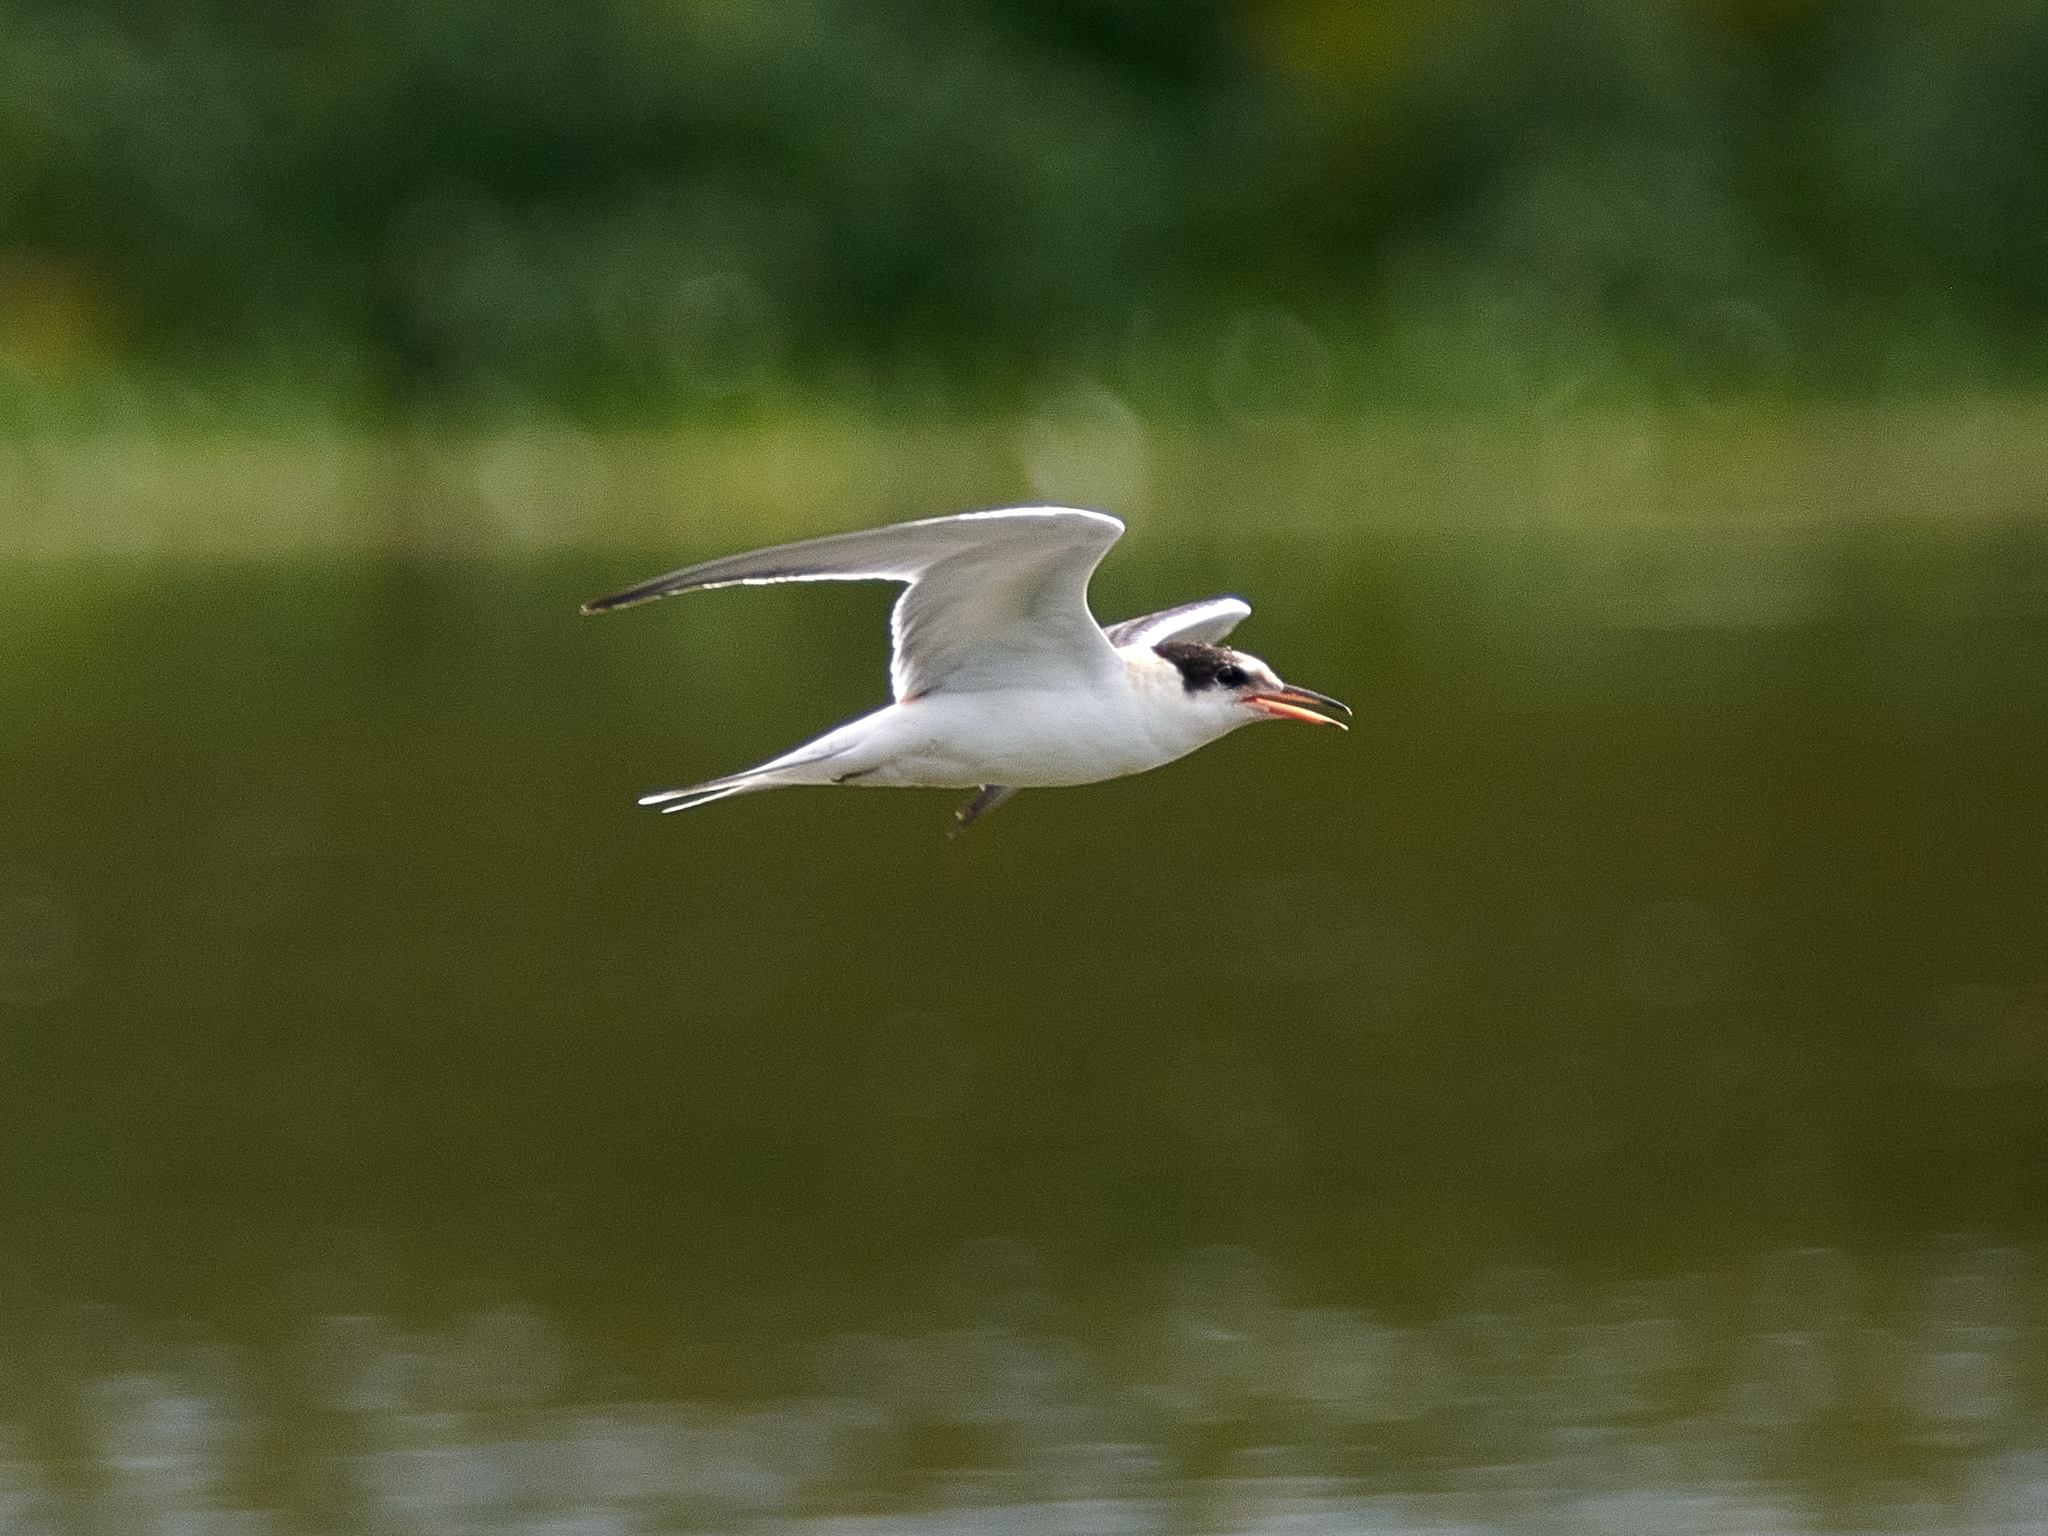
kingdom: Animalia
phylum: Chordata
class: Aves
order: Charadriiformes
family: Laridae
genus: Sterna
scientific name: Sterna hirundo
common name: Common tern
